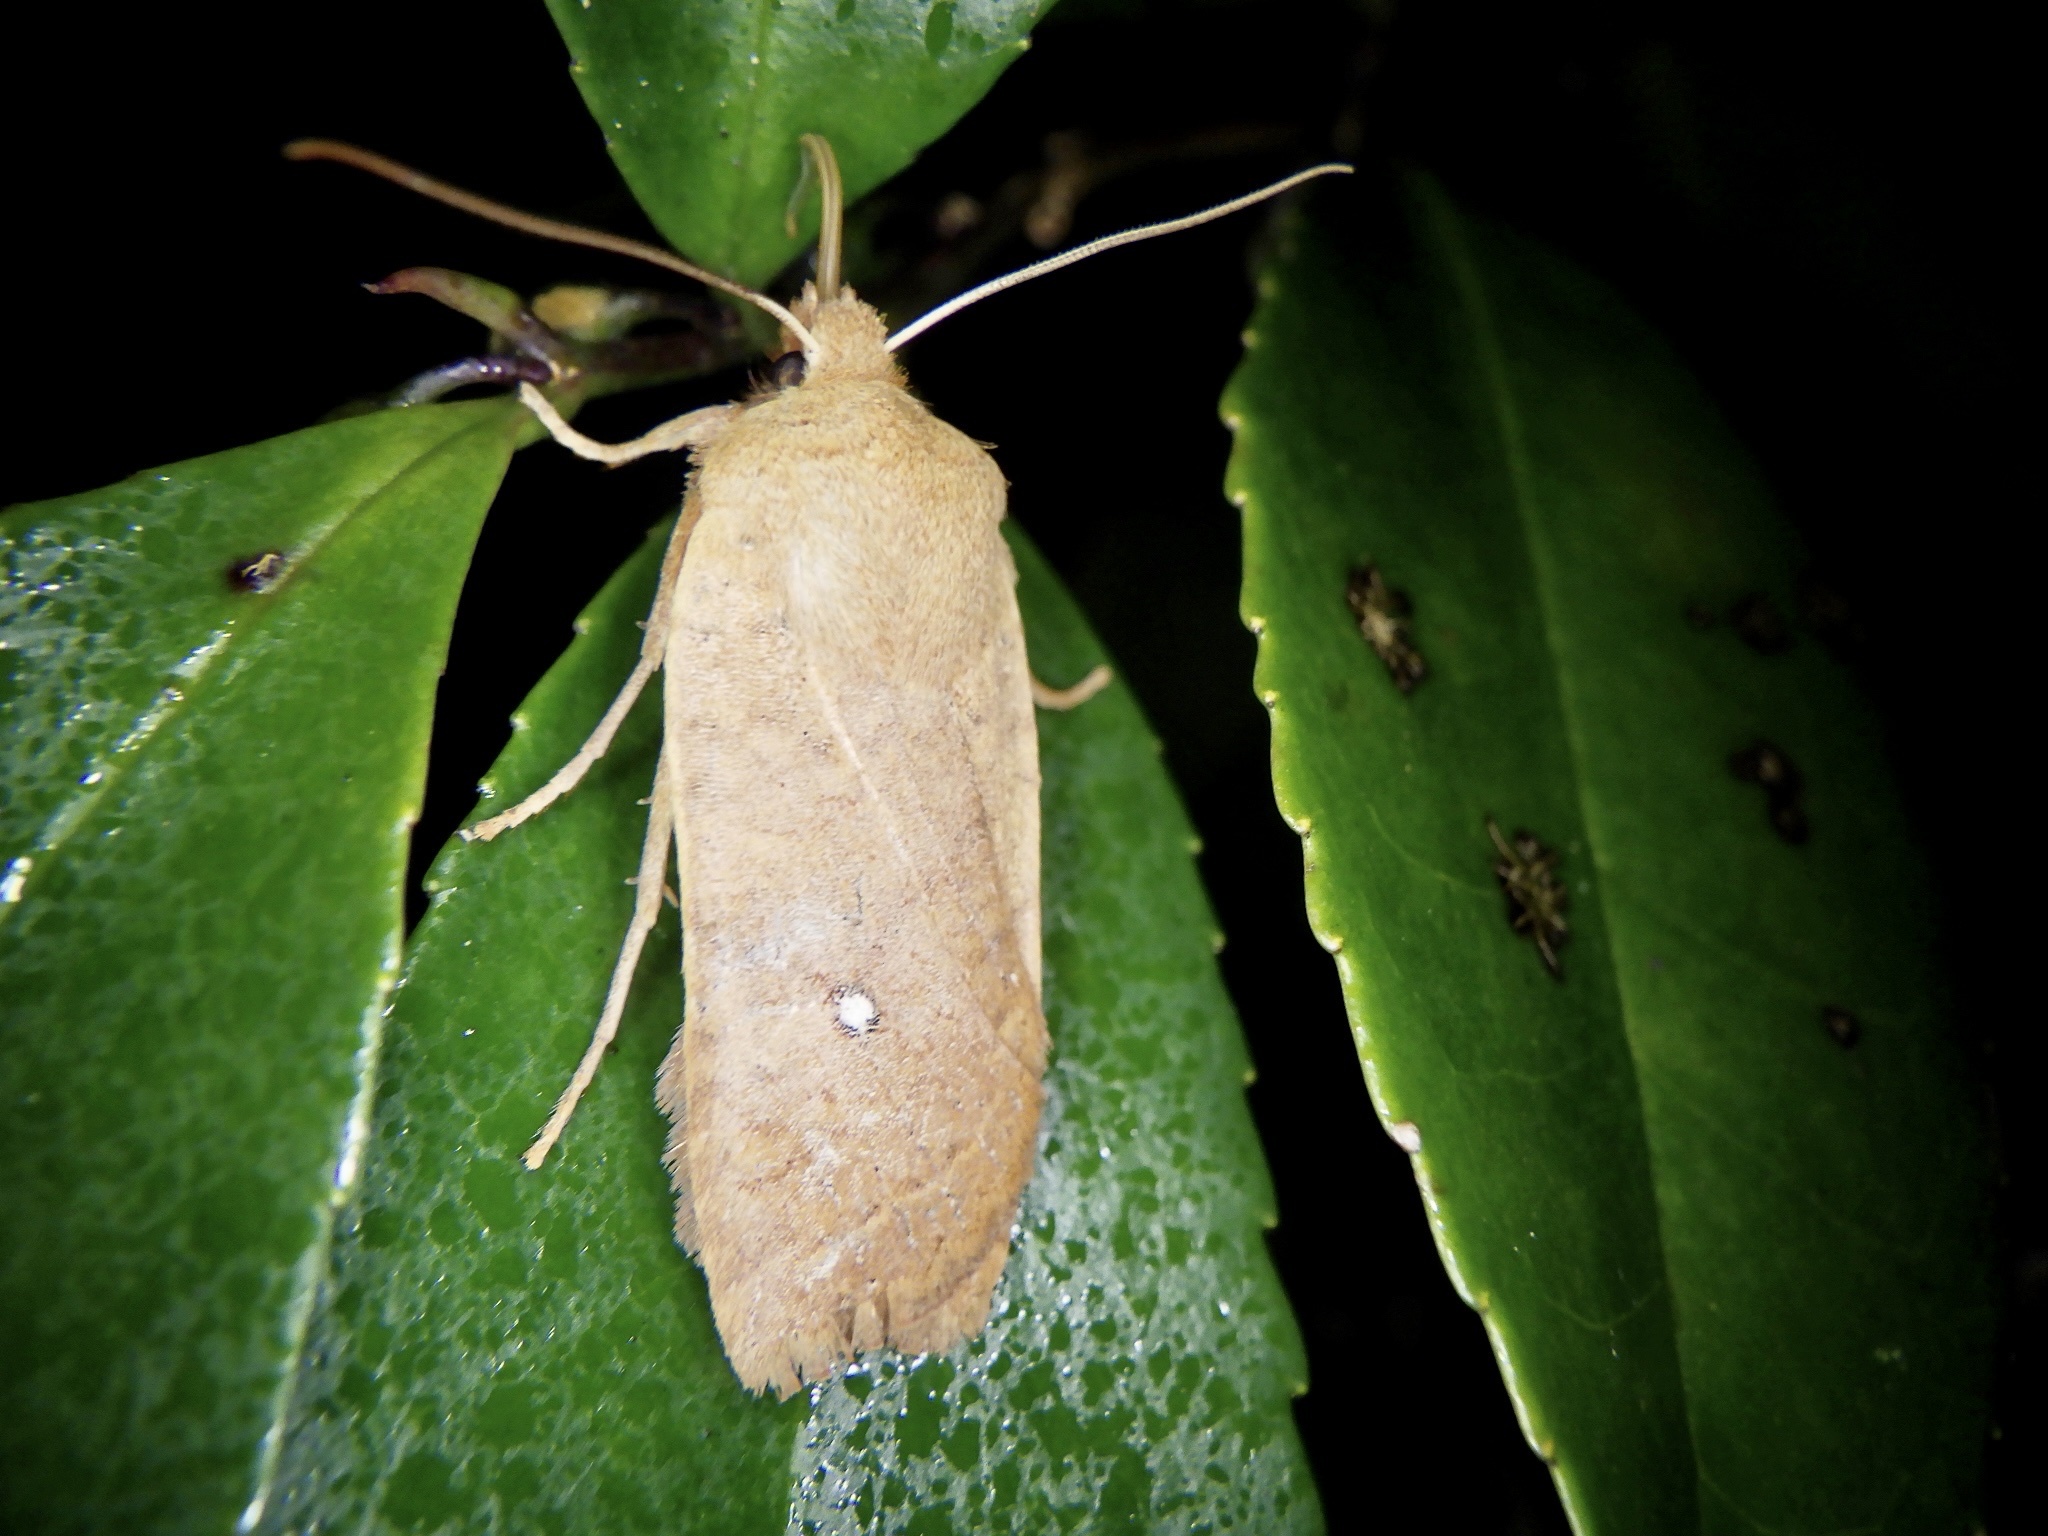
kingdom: Animalia
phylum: Arthropoda
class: Insecta
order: Lepidoptera
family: Noctuidae
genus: Conistra
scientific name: Conistra albipuncta
